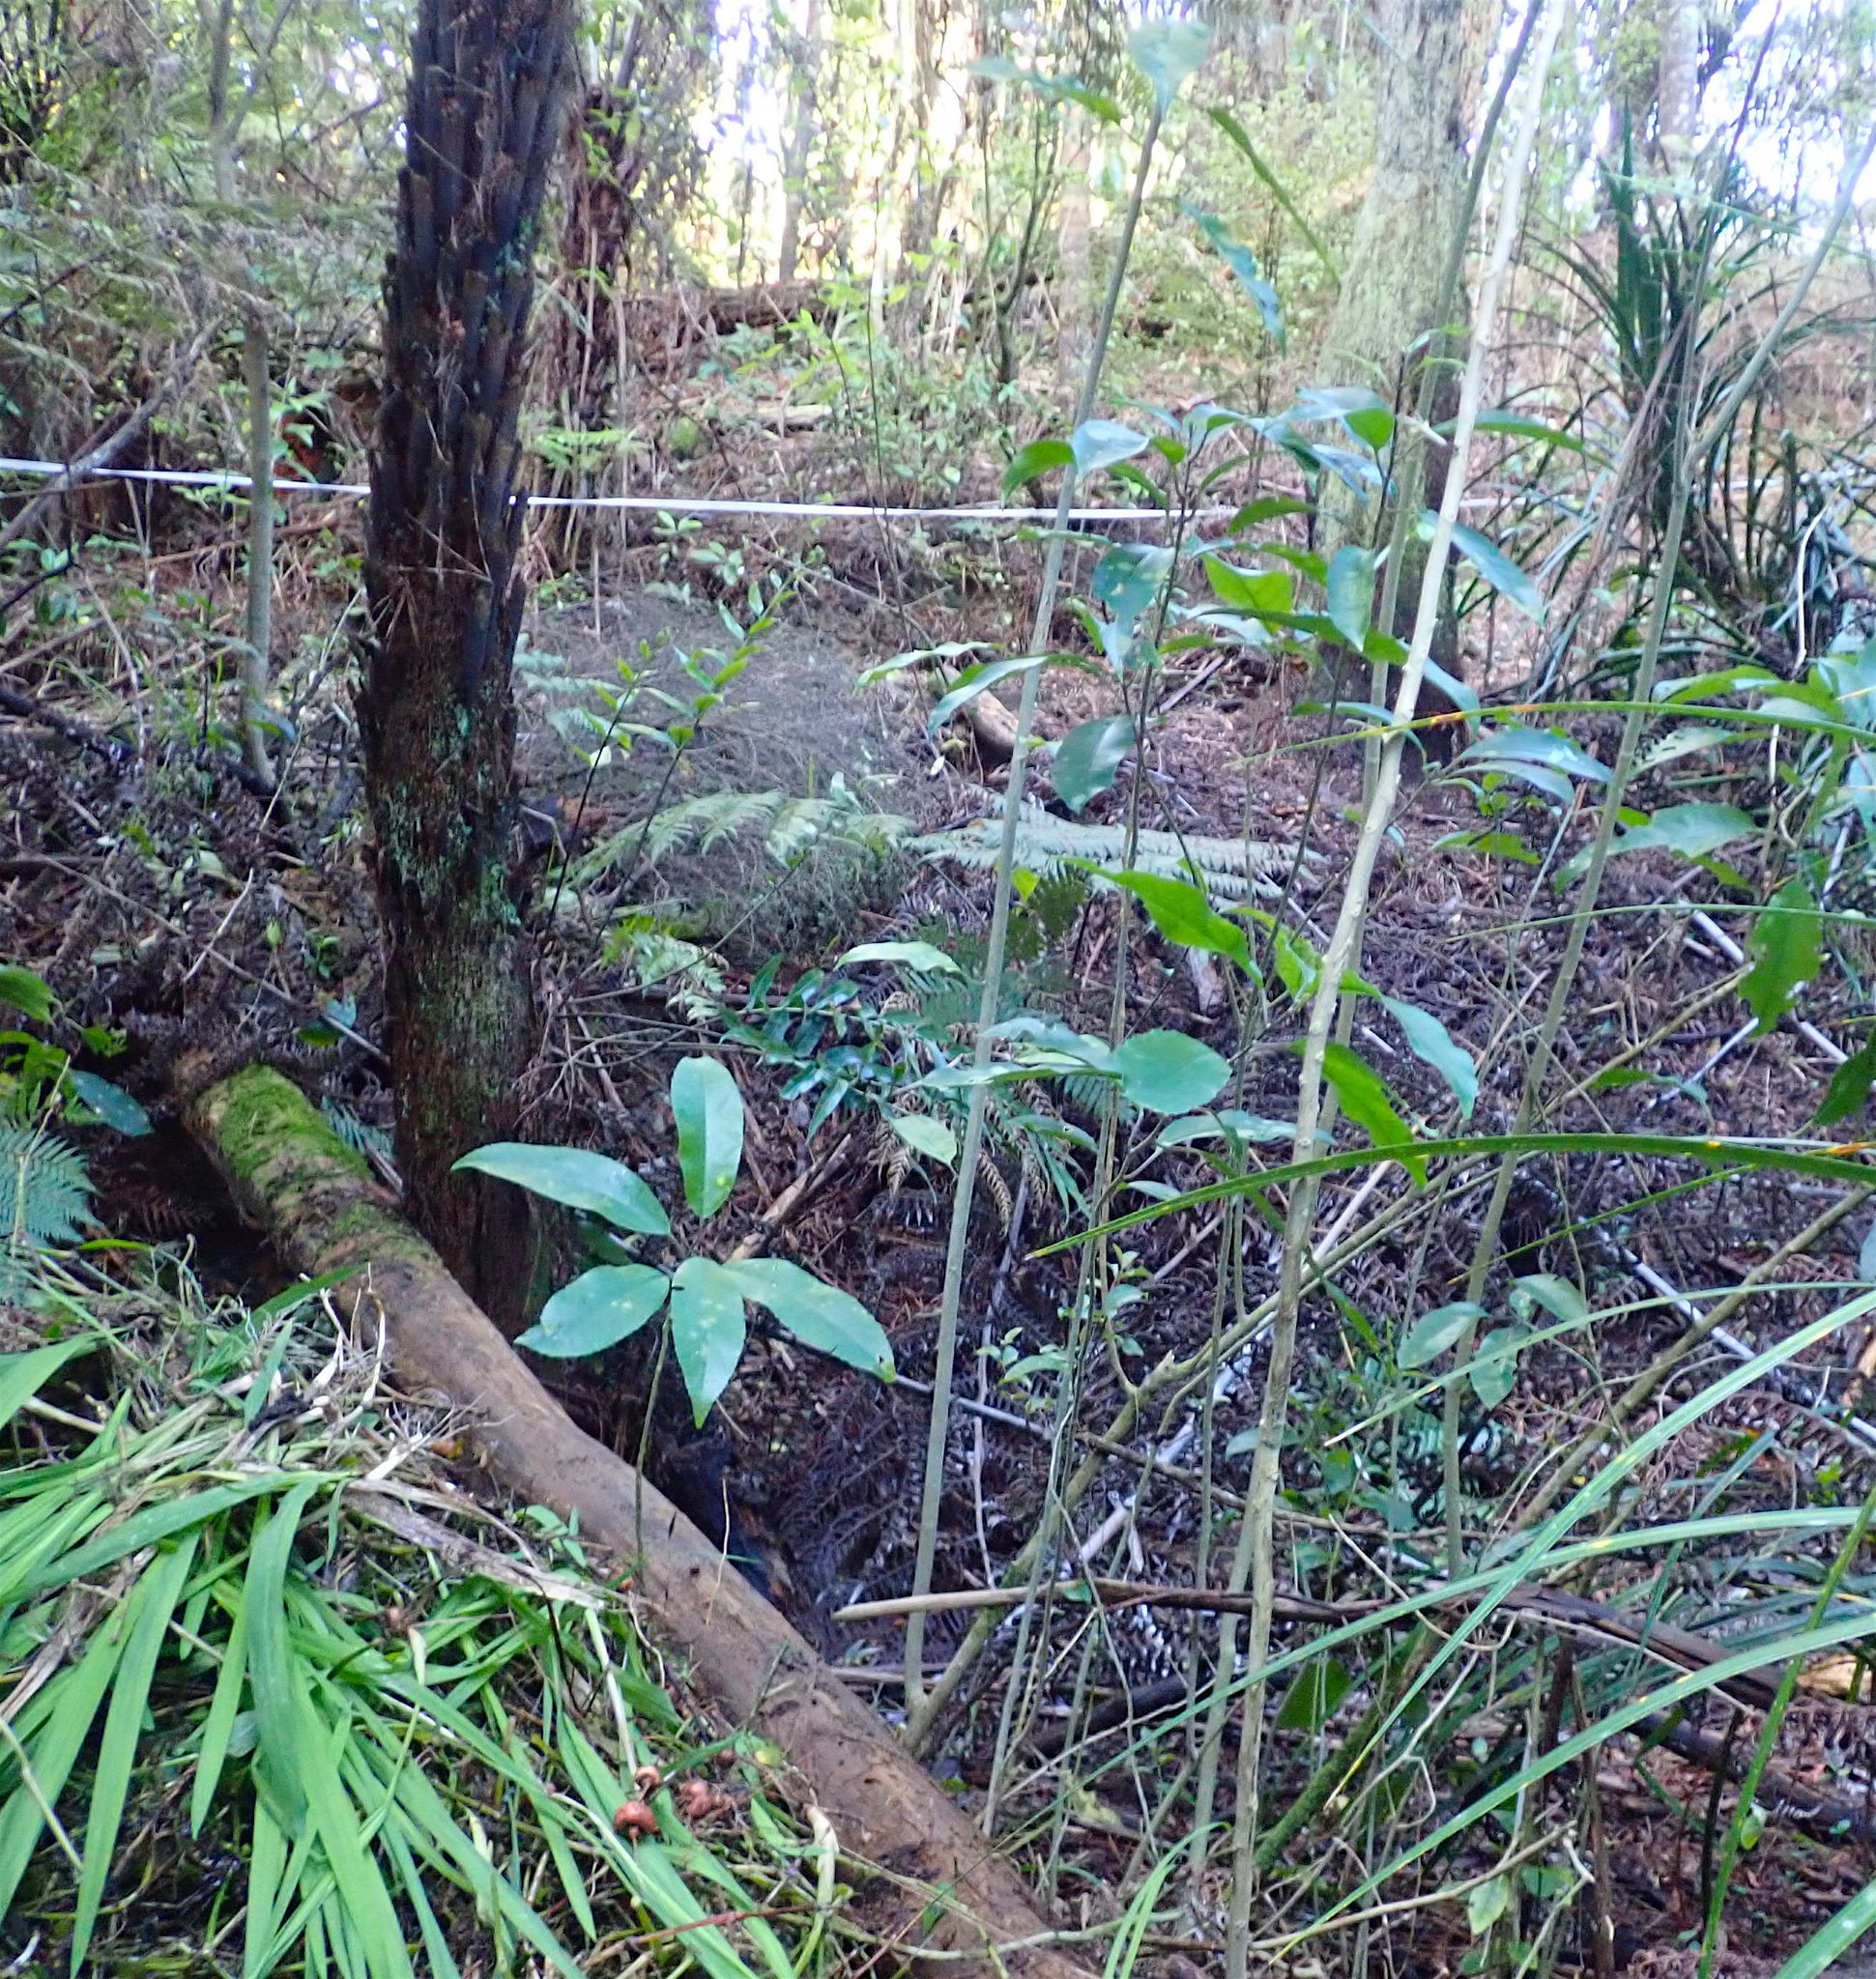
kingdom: Plantae
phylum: Tracheophyta
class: Polypodiopsida
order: Polypodiales
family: Aspleniaceae
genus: Asplenium
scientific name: Asplenium oblongifolium
